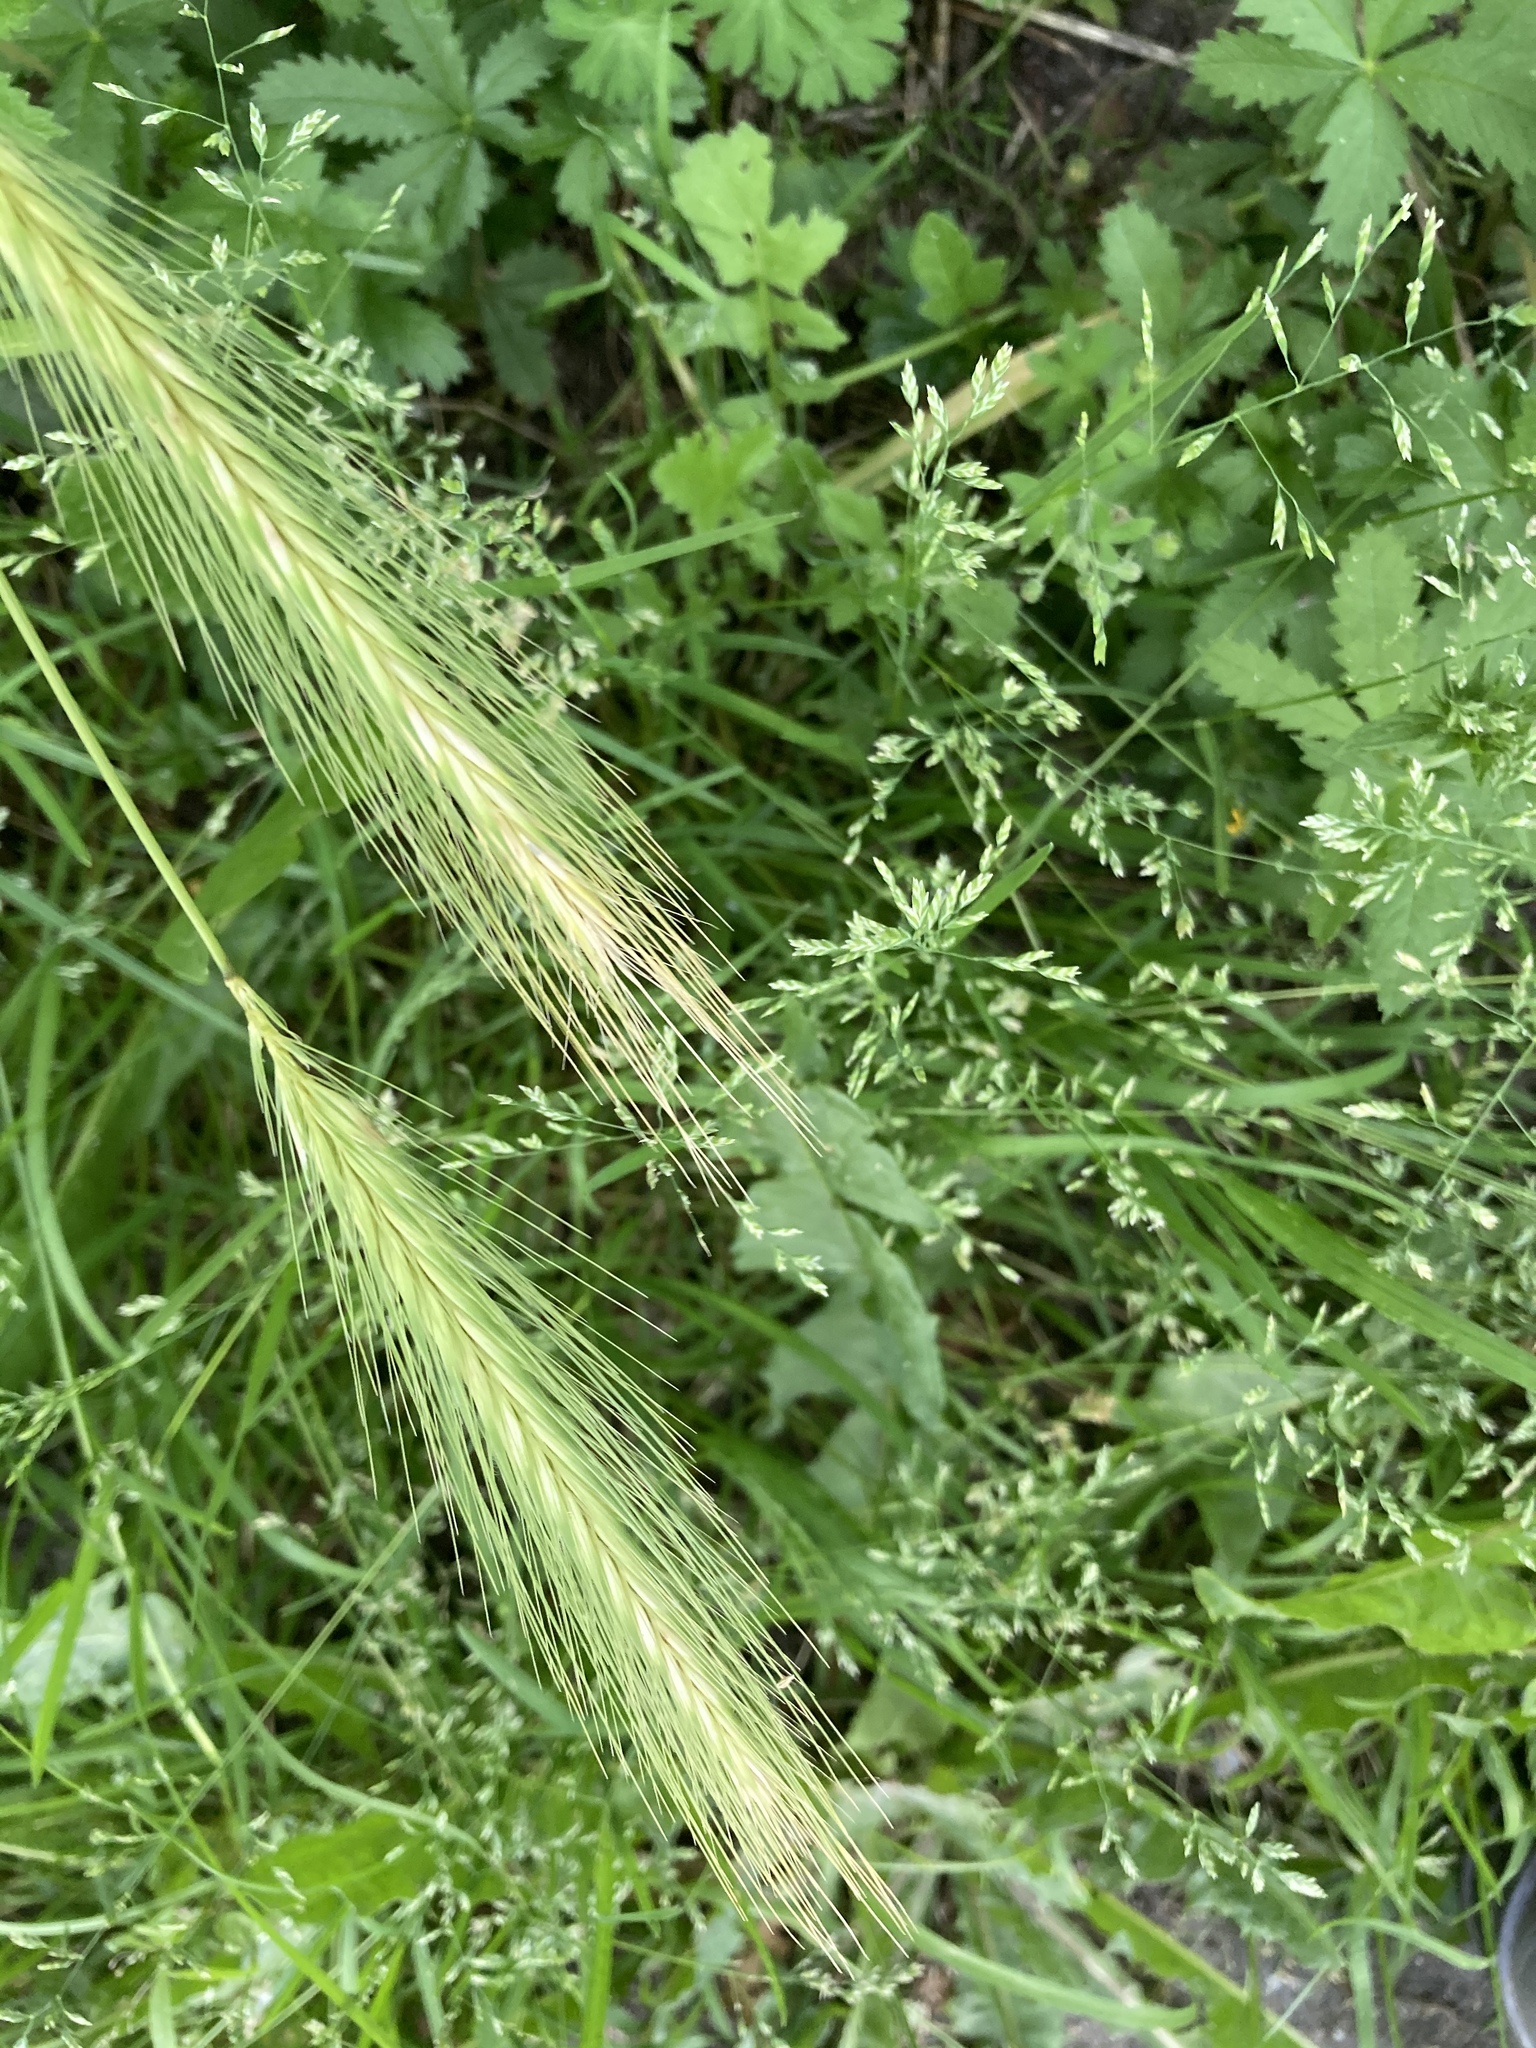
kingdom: Plantae
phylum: Tracheophyta
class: Liliopsida
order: Poales
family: Poaceae
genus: Hordeum
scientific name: Hordeum murinum
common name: Wall barley
